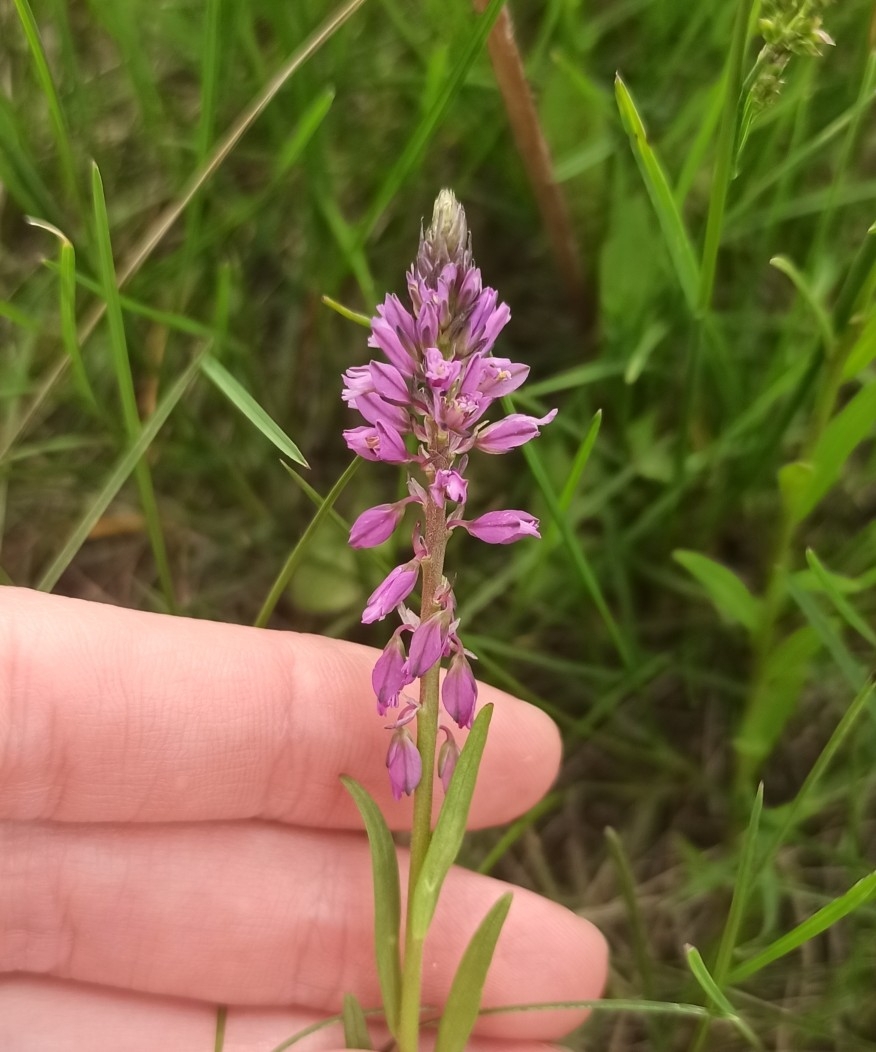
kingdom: Plantae
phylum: Tracheophyta
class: Magnoliopsida
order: Fabales
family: Polygalaceae
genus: Polygala
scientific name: Polygala comosa
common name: Tufted milkwort
